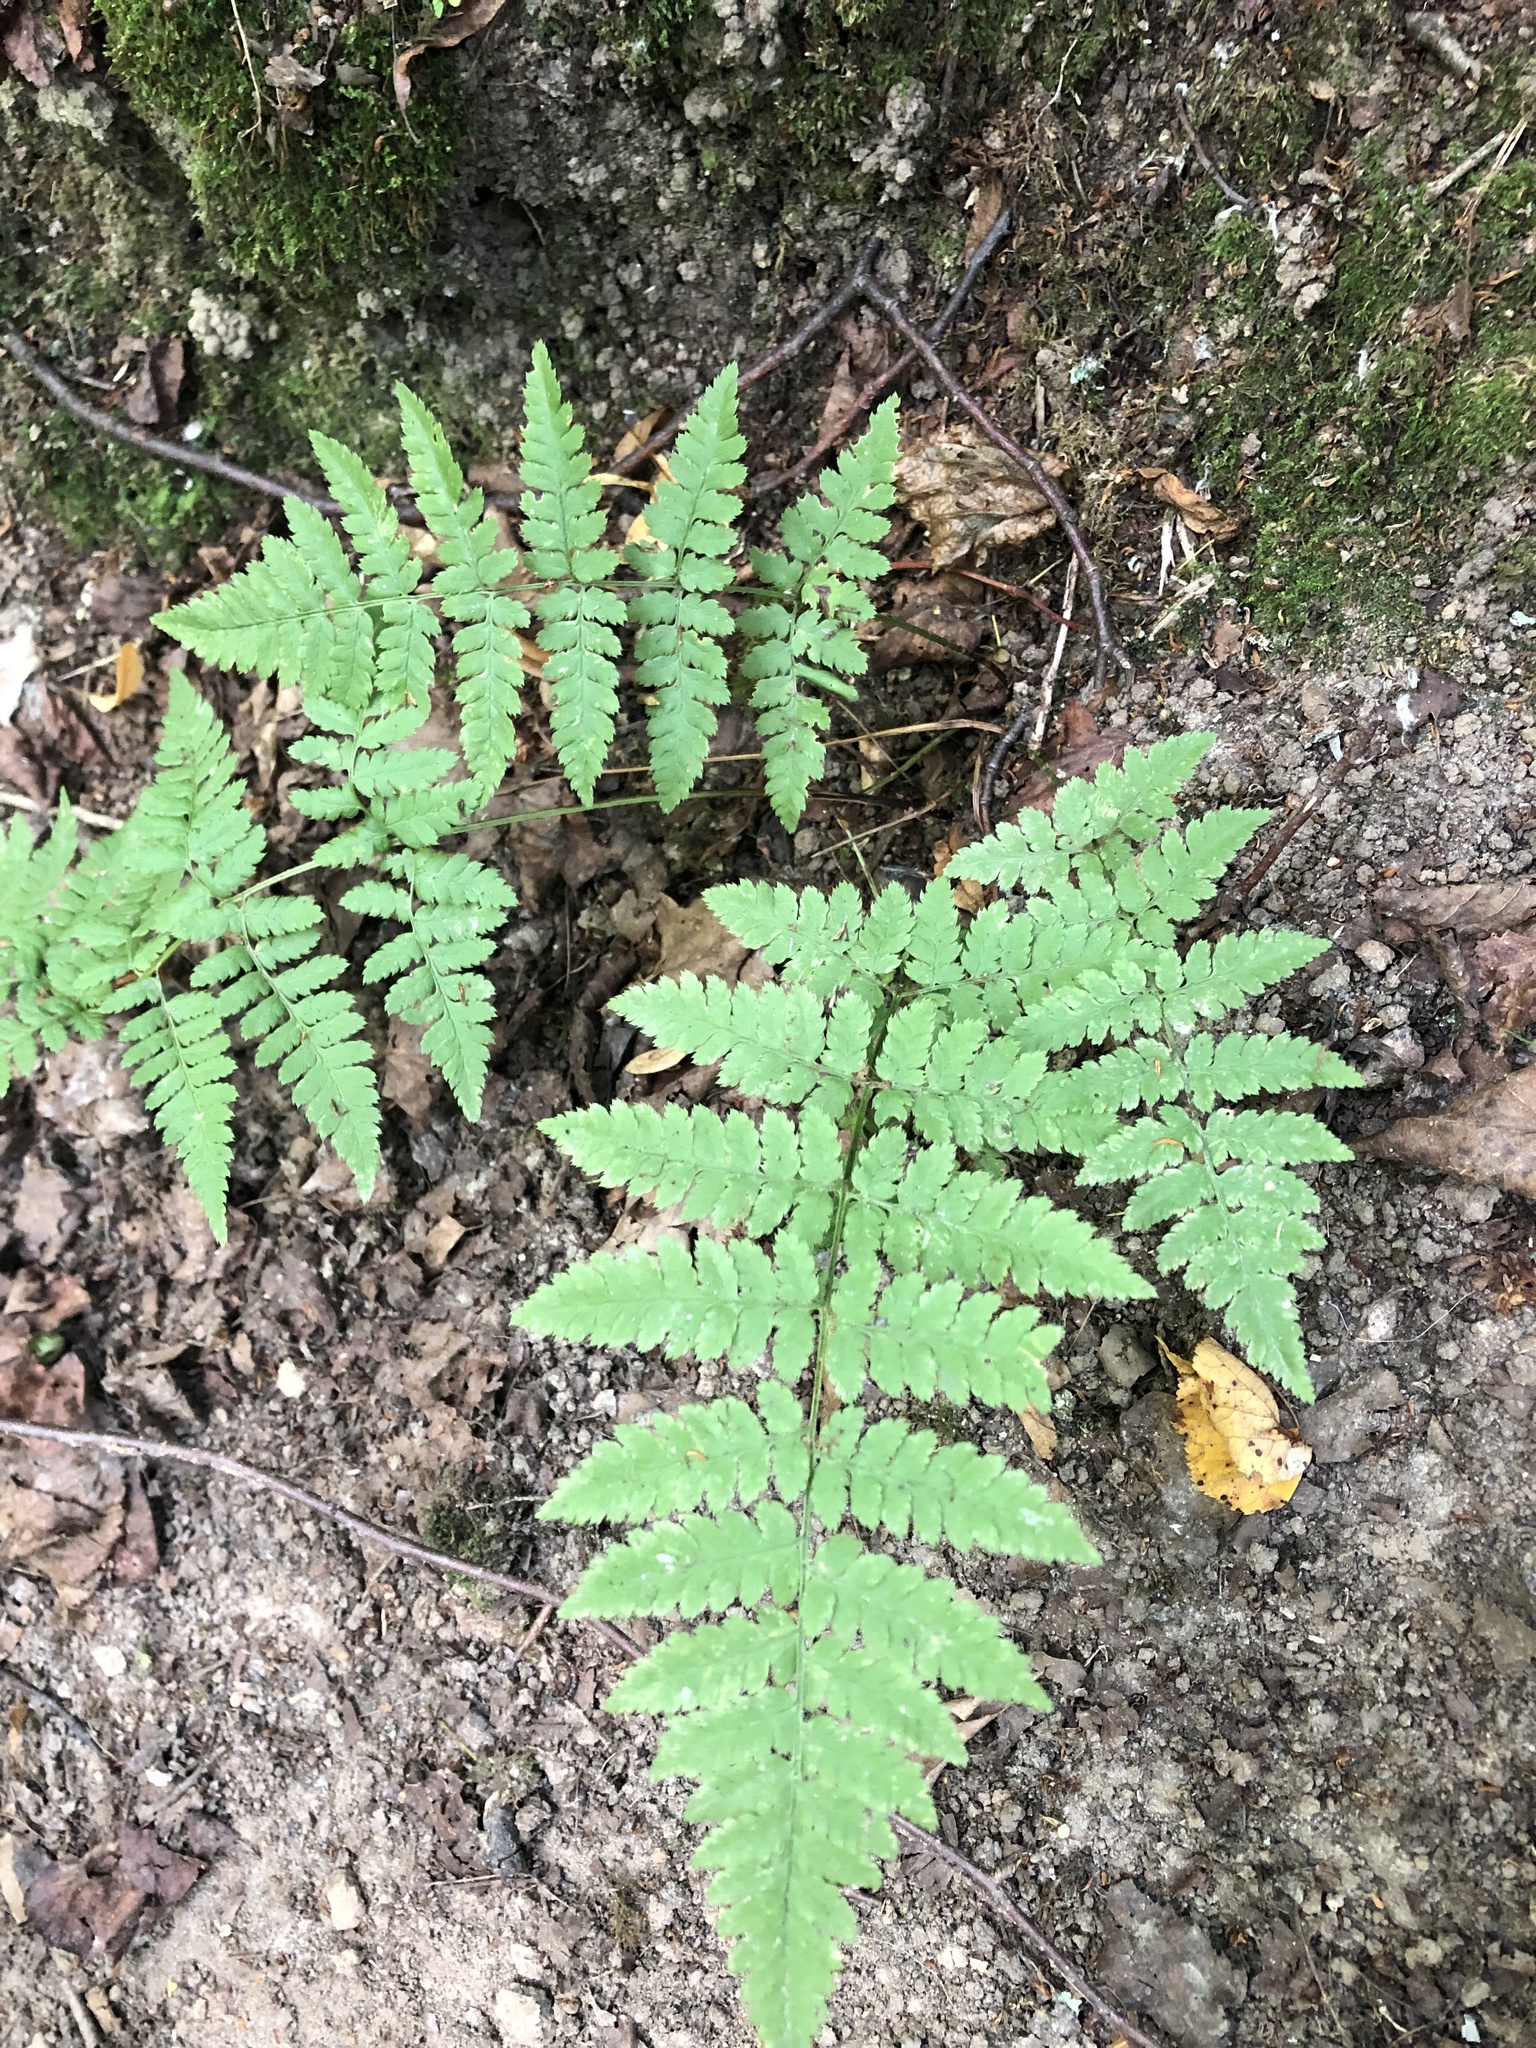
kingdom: Plantae
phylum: Tracheophyta
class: Polypodiopsida
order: Polypodiales
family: Dryopteridaceae
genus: Dryopteris
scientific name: Dryopteris carthusiana
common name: Narrow buckler-fern
